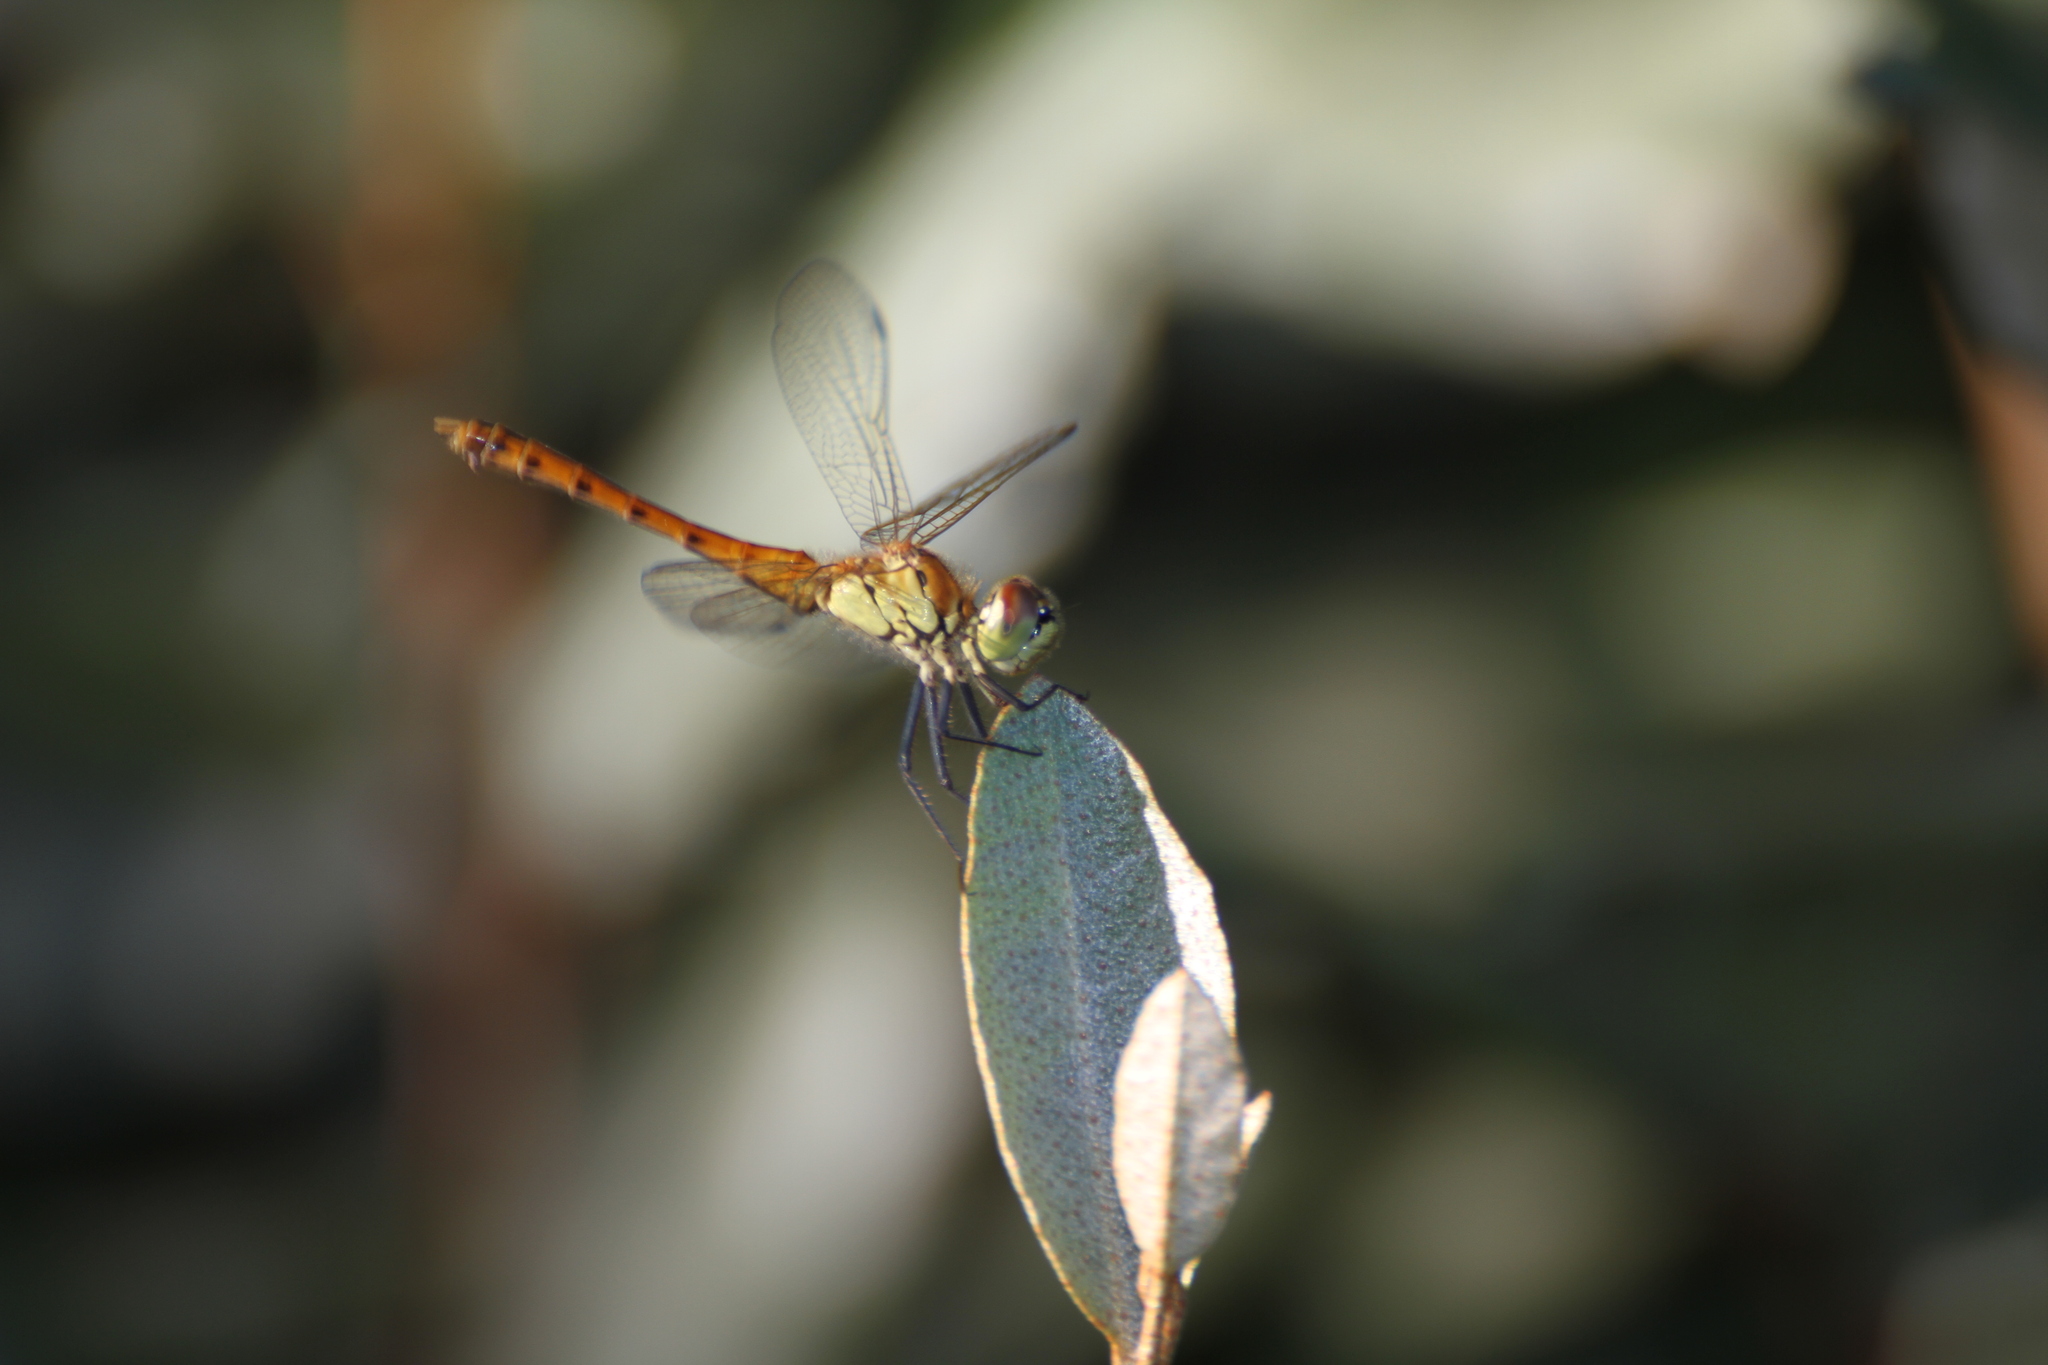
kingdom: Animalia
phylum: Arthropoda
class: Insecta
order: Odonata
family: Libellulidae
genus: Sympetrum
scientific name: Sympetrum depressiusculum
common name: Spotted darter
